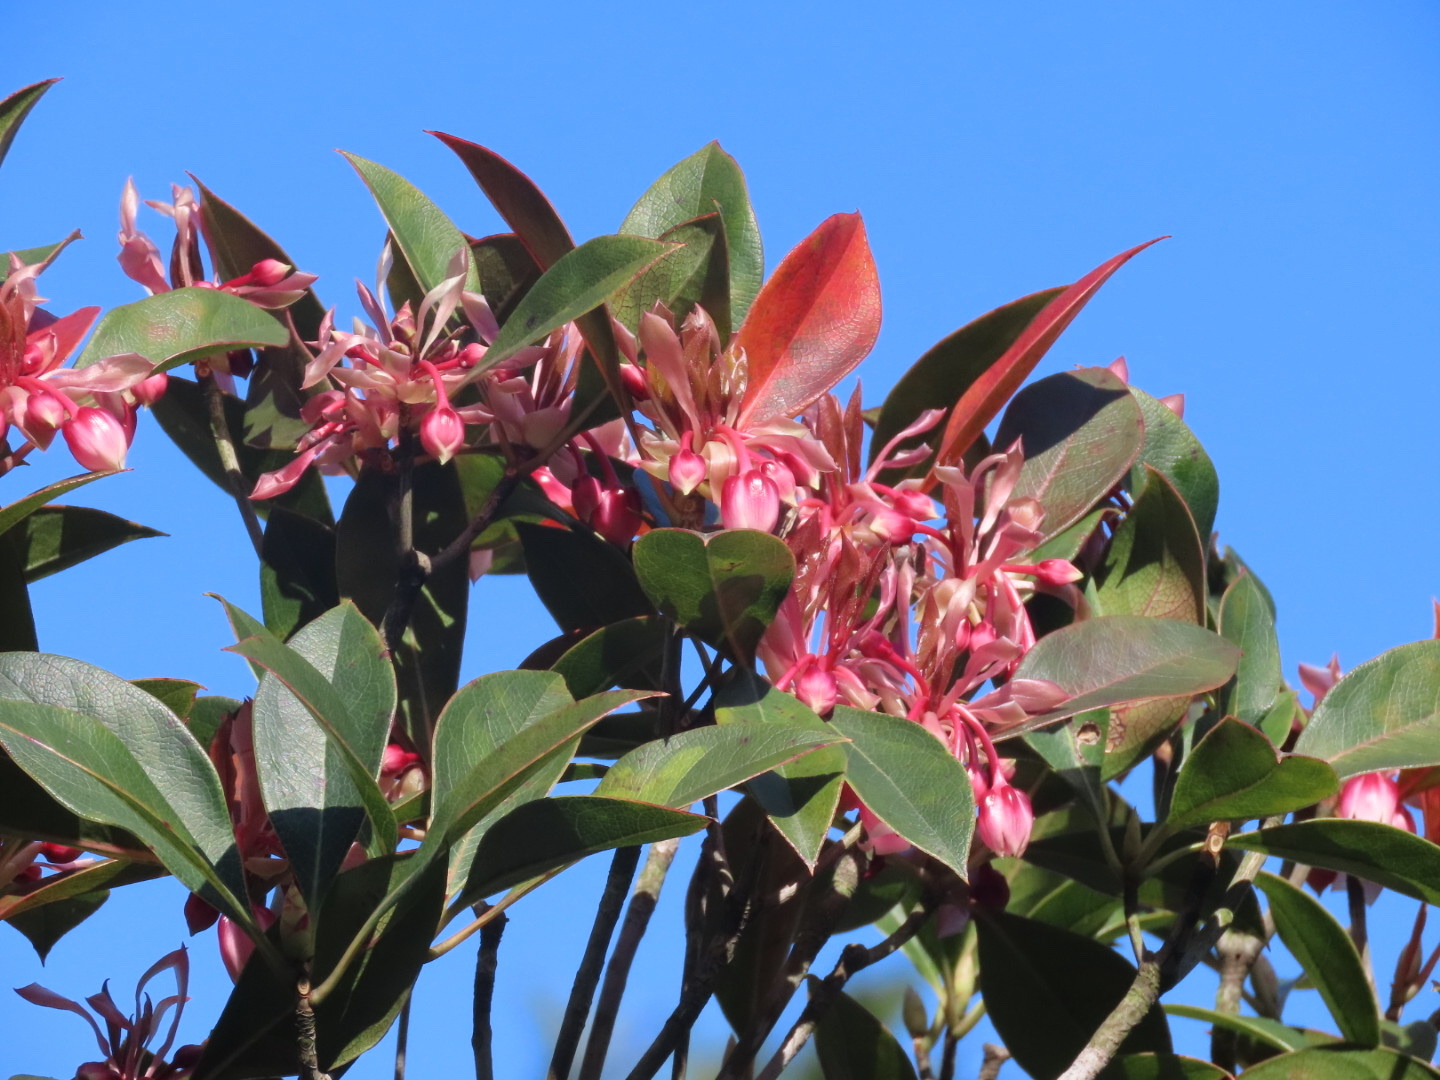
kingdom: Plantae
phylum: Tracheophyta
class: Magnoliopsida
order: Ericales
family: Ericaceae
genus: Enkianthus
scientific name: Enkianthus quinqueflorus
